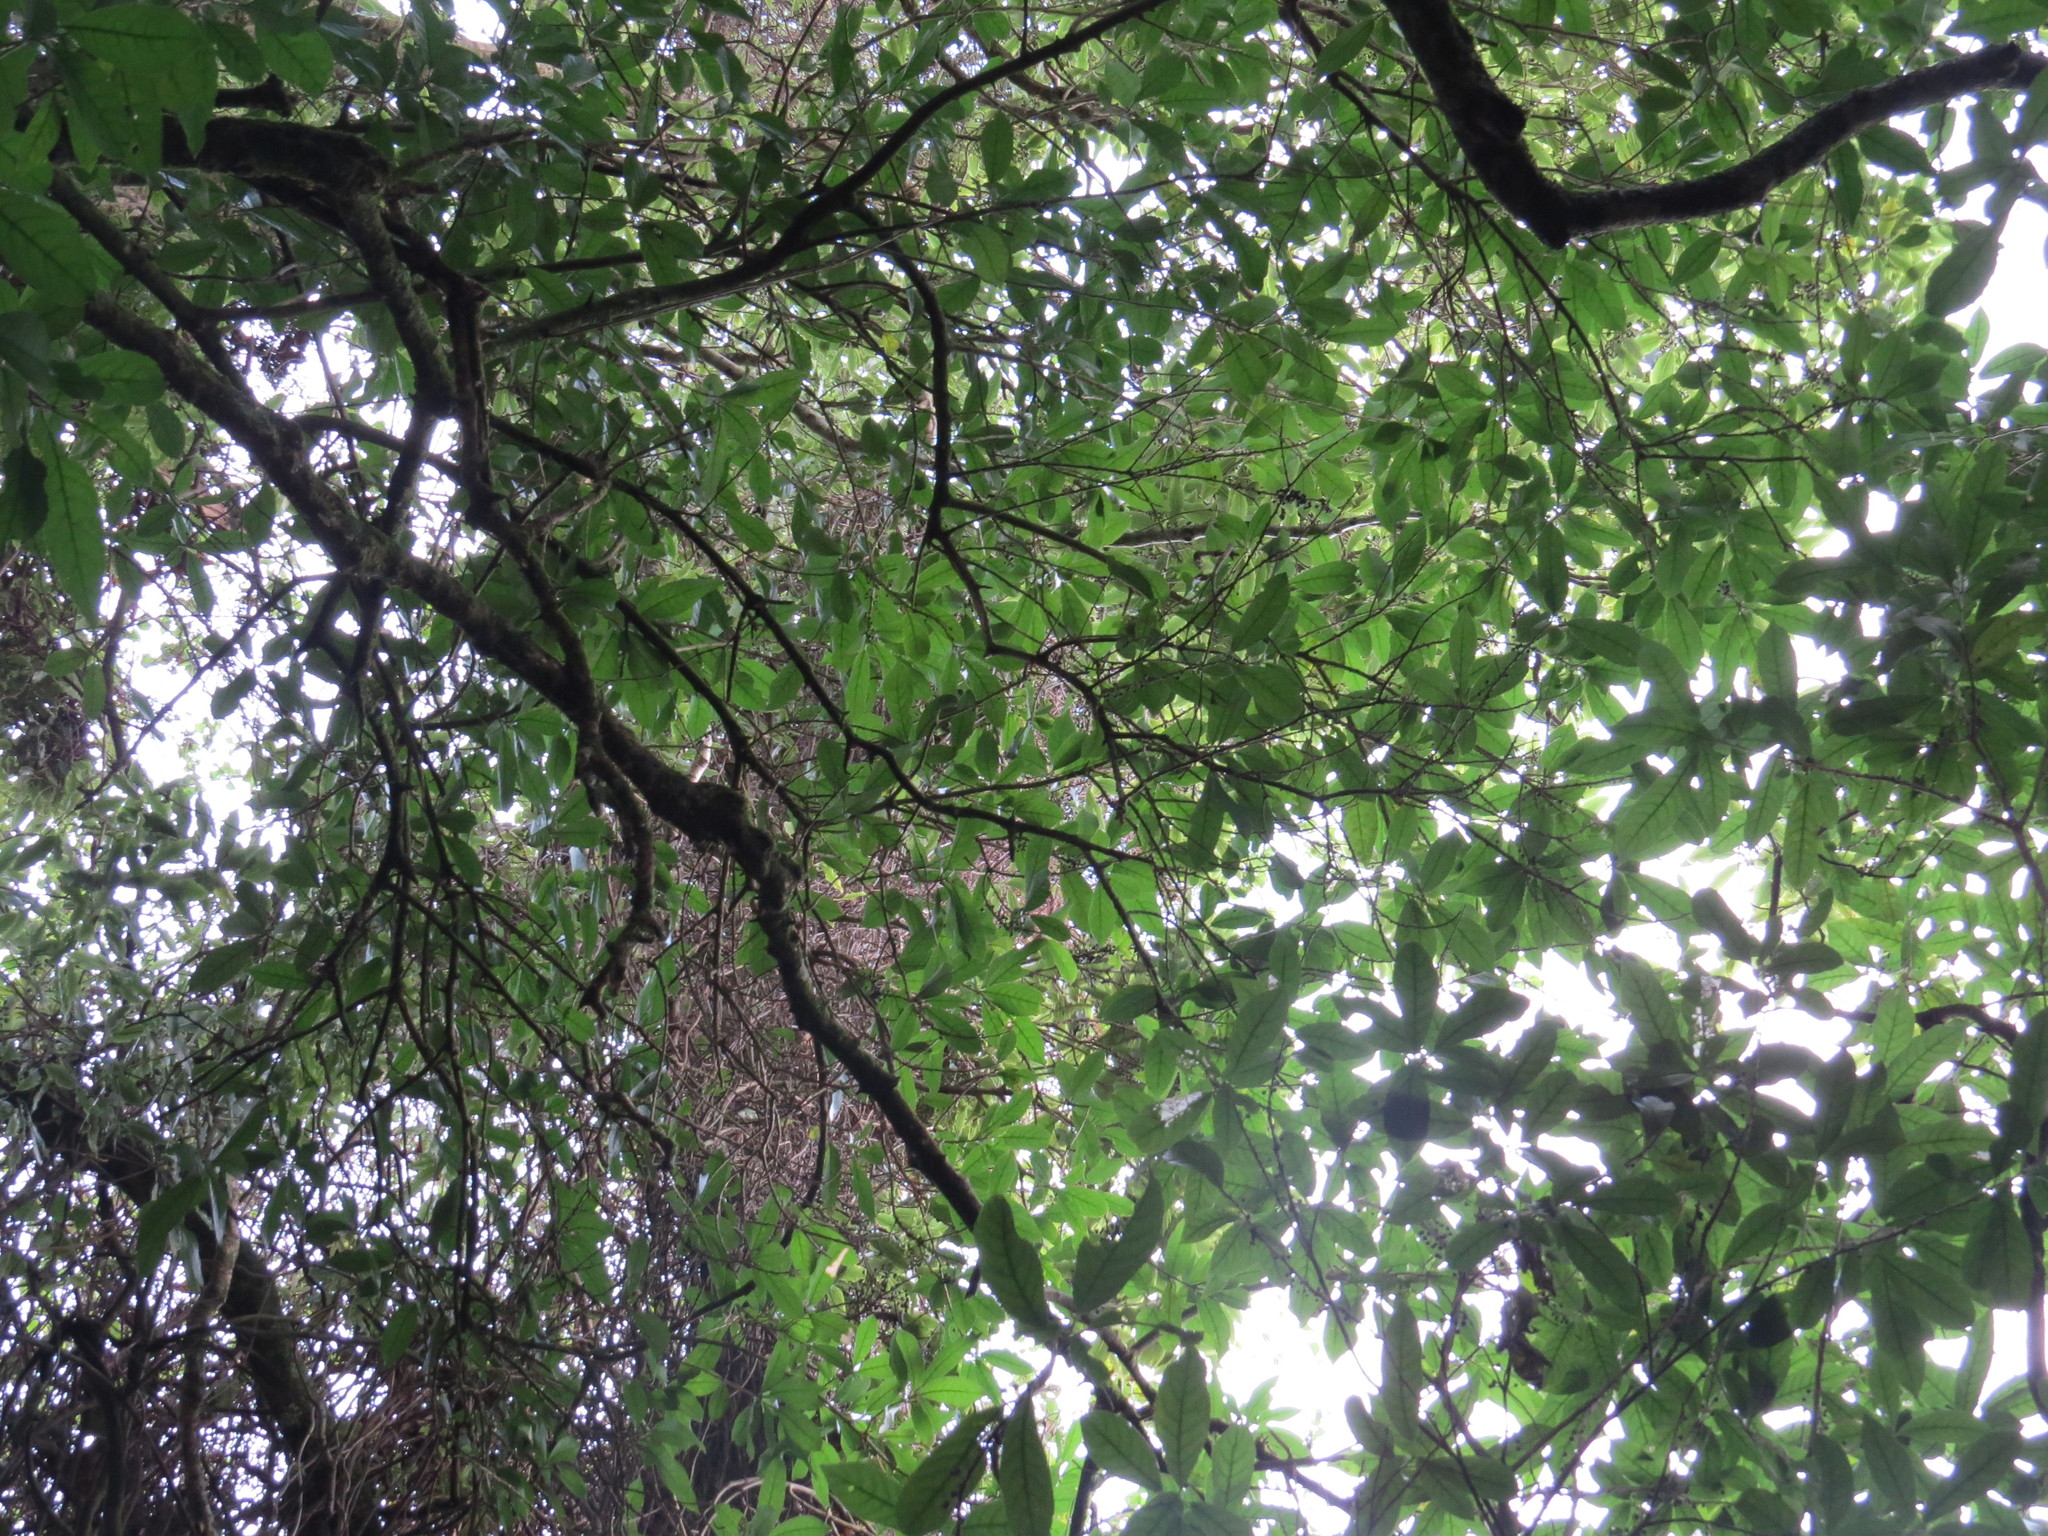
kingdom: Plantae
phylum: Tracheophyta
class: Magnoliopsida
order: Apiales
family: Pittosporaceae
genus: Pittosporum
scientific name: Pittosporum eugenioides
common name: Lemonwood
